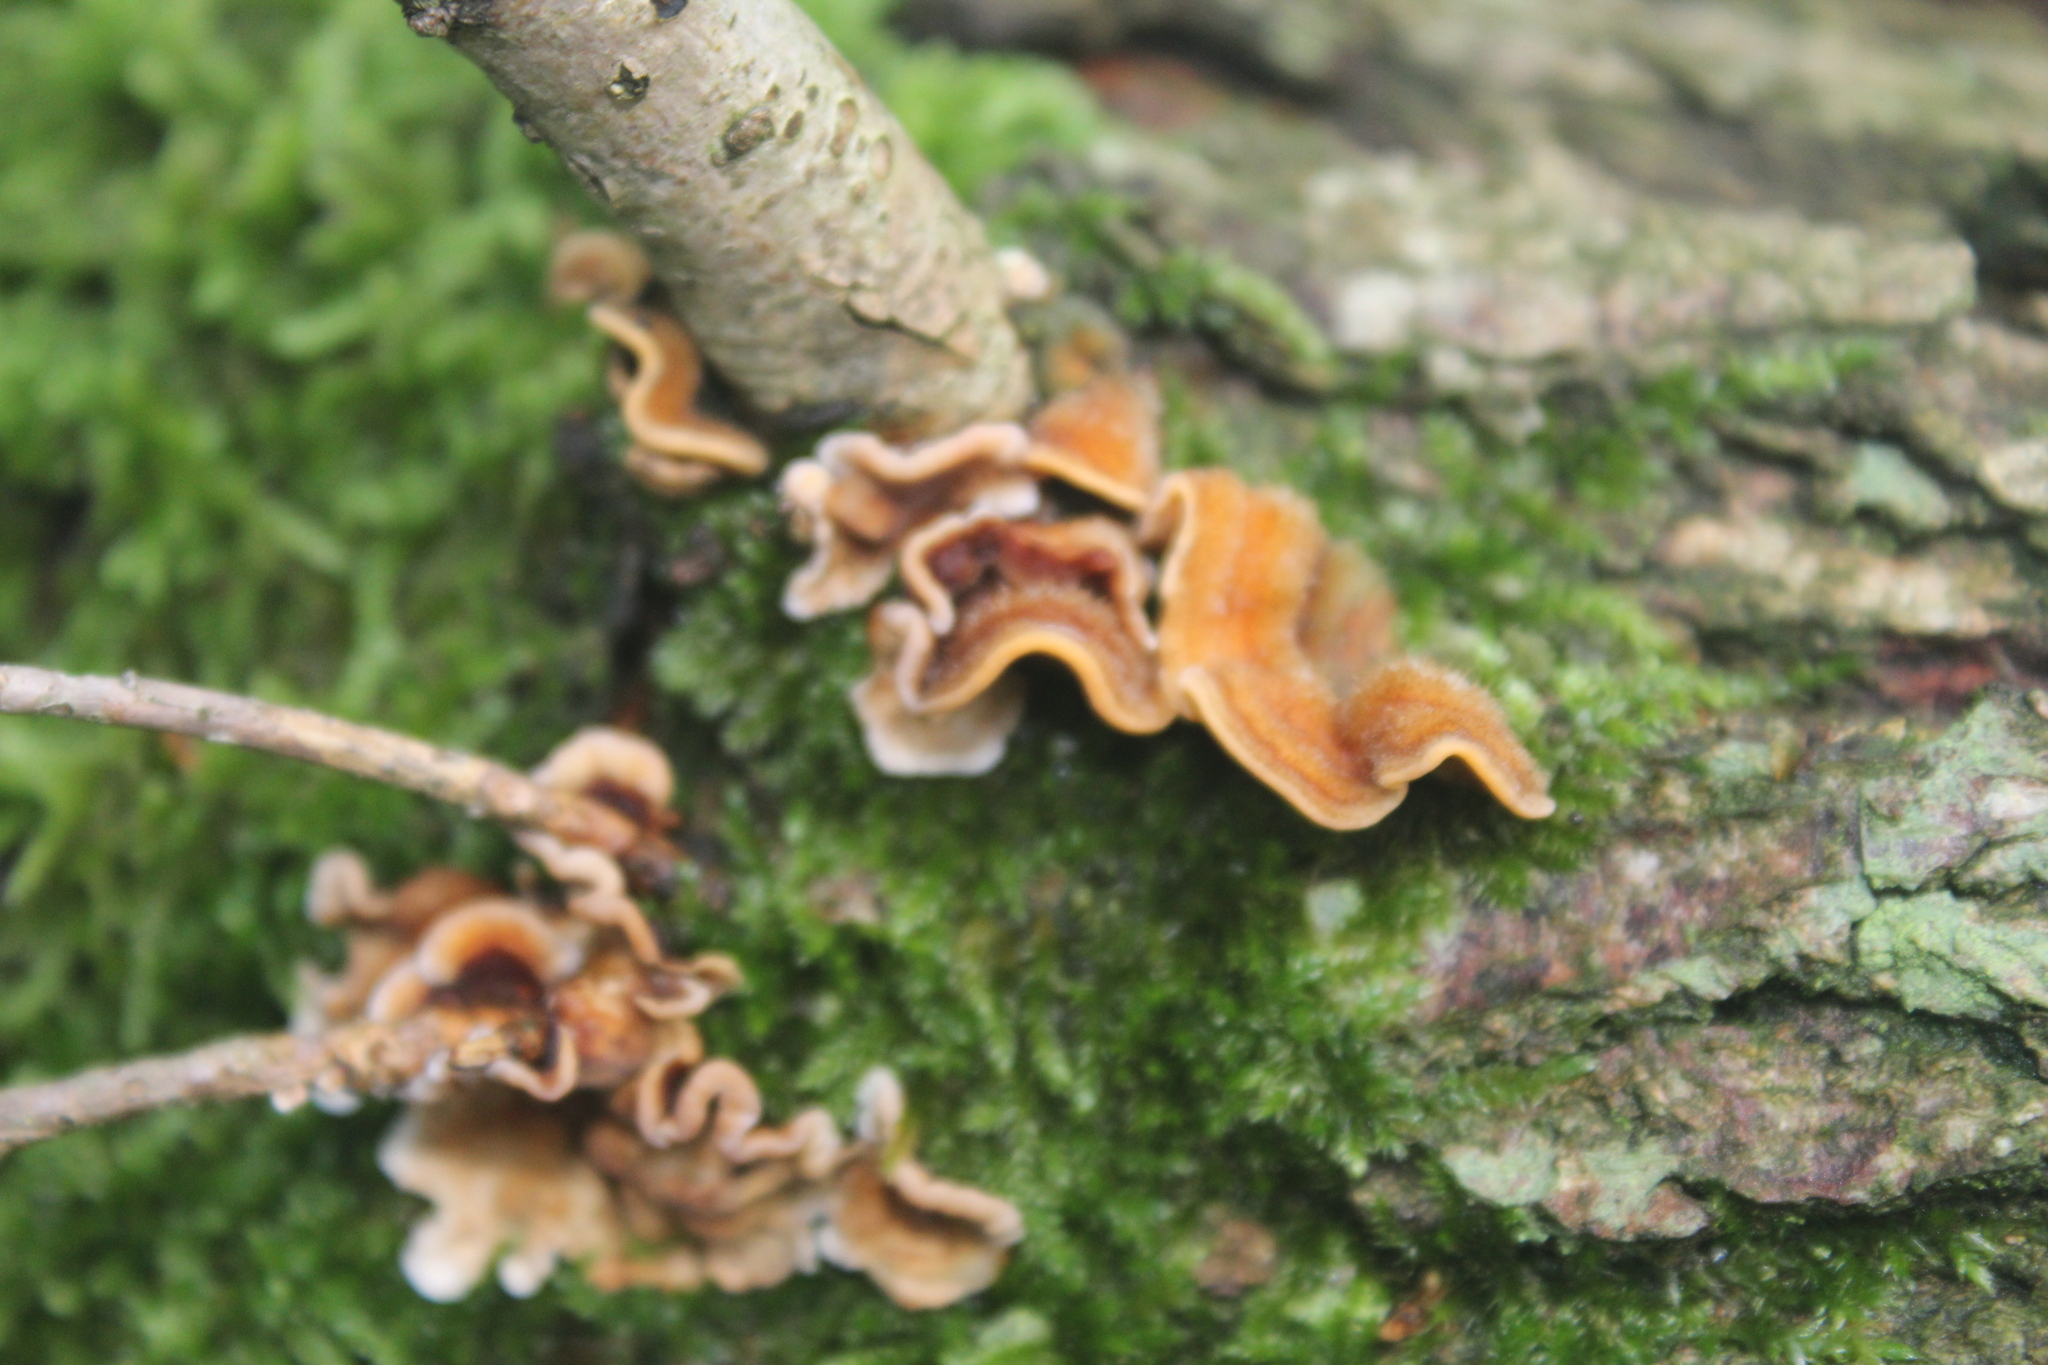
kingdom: Fungi
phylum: Basidiomycota
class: Agaricomycetes
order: Russulales
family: Stereaceae
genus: Stereum
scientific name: Stereum hirsutum
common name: Hairy curtain crust
